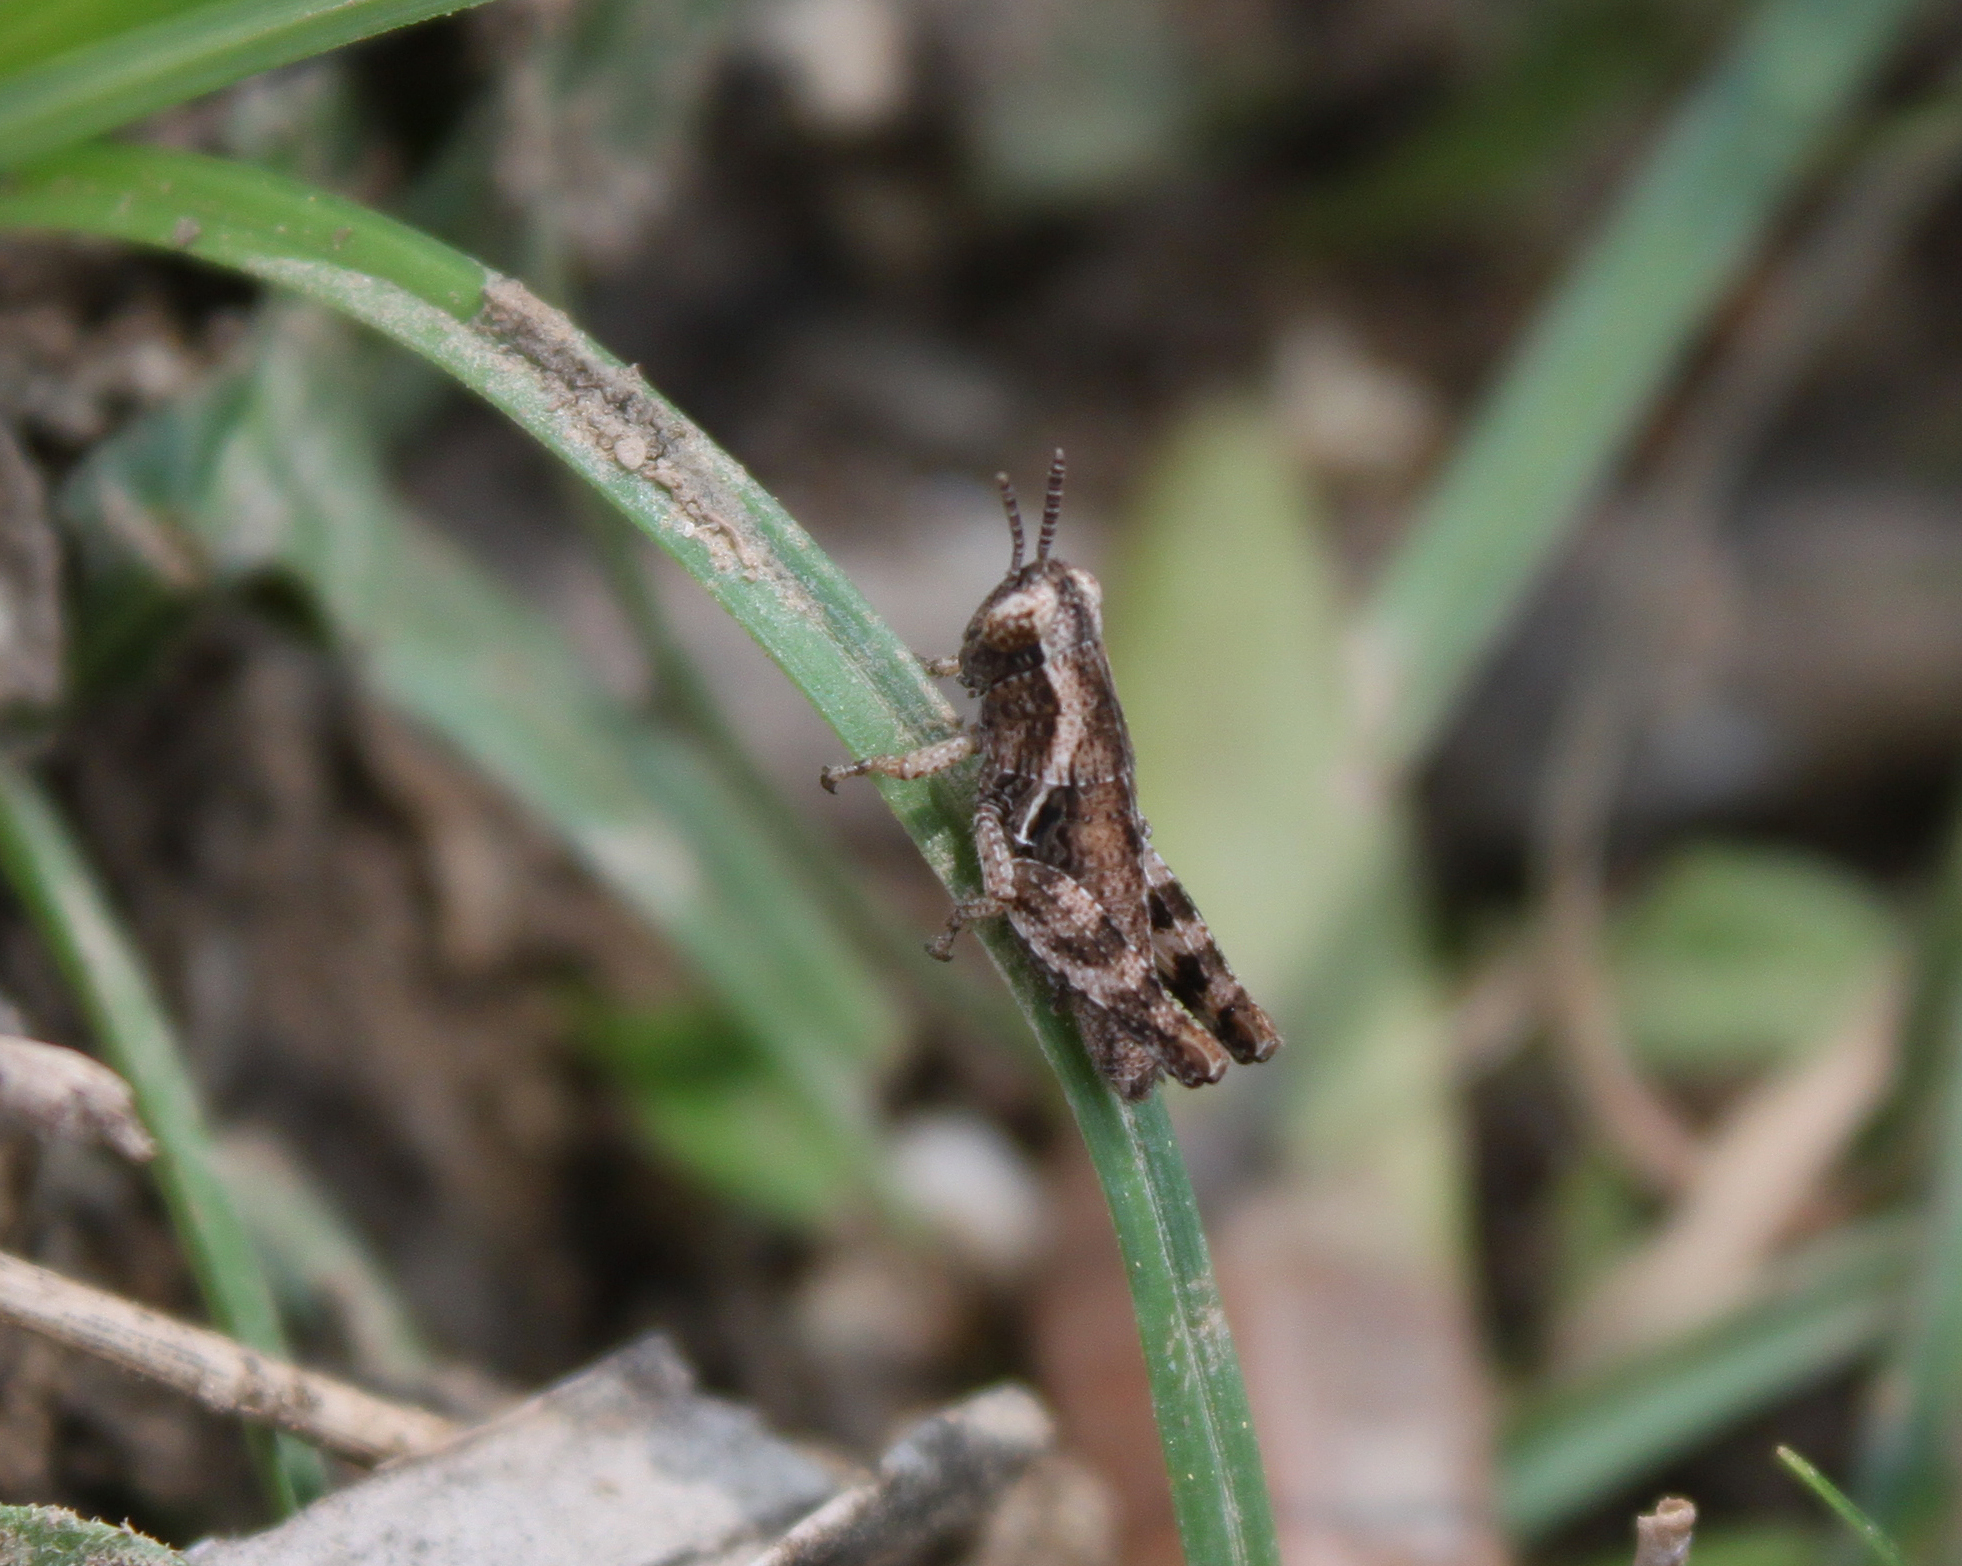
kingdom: Animalia
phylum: Arthropoda
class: Insecta
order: Orthoptera
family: Acrididae
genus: Pezotettix
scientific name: Pezotettix giornae
